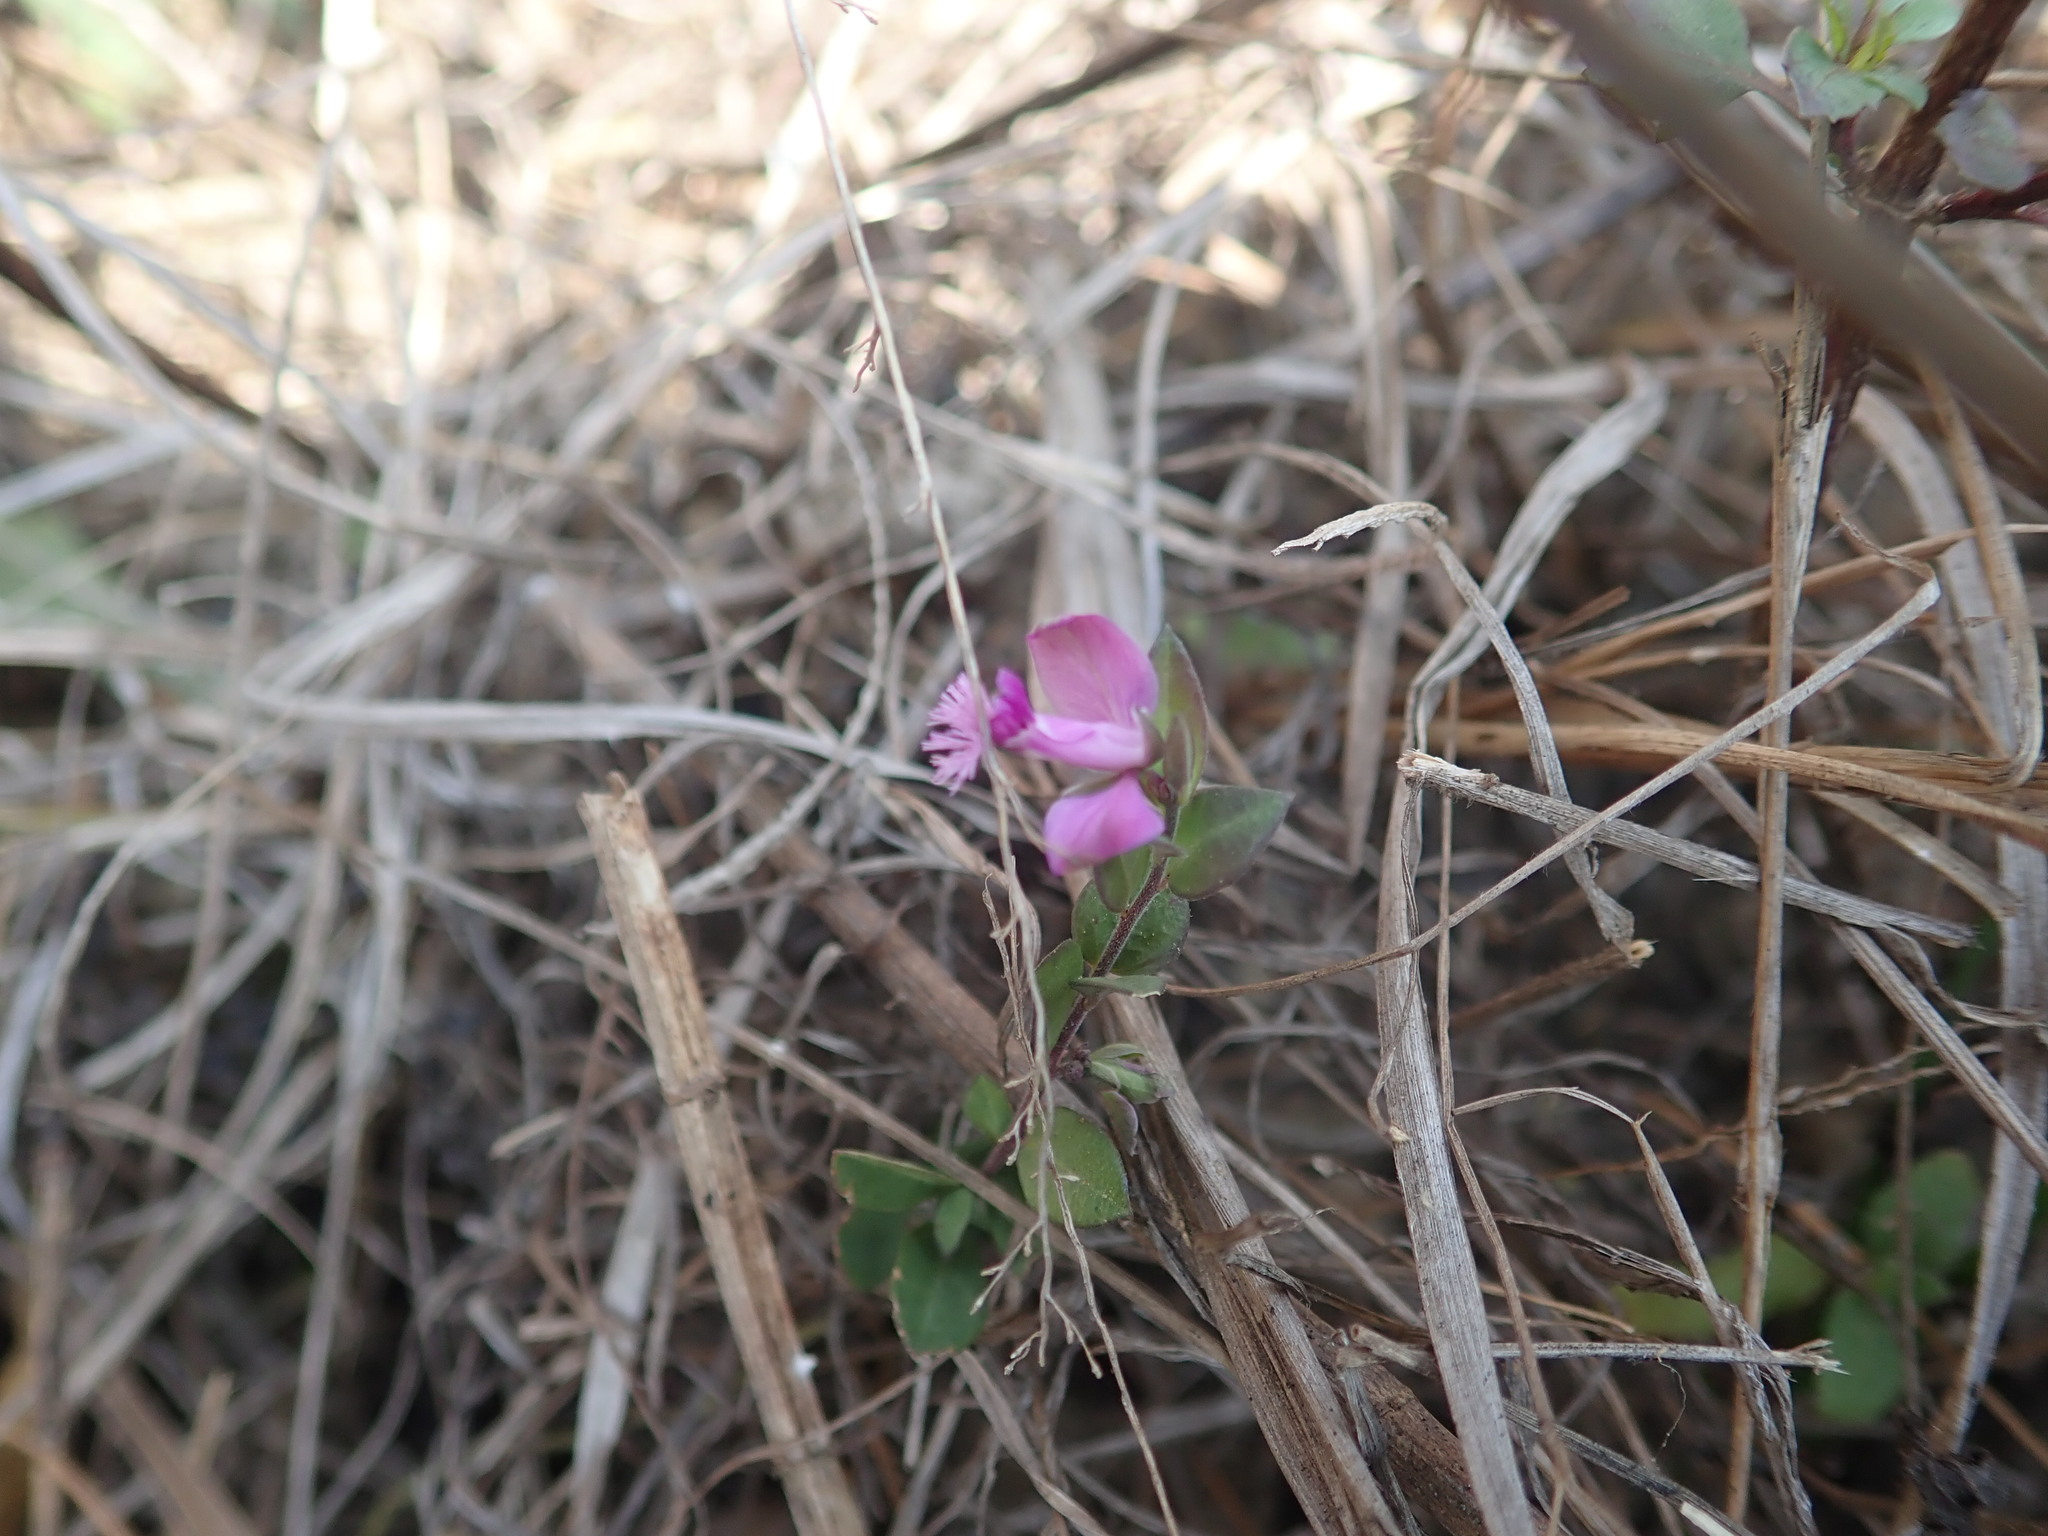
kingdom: Plantae
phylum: Tracheophyta
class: Magnoliopsida
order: Fabales
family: Polygalaceae
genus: Polygala
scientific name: Polygala japonica
